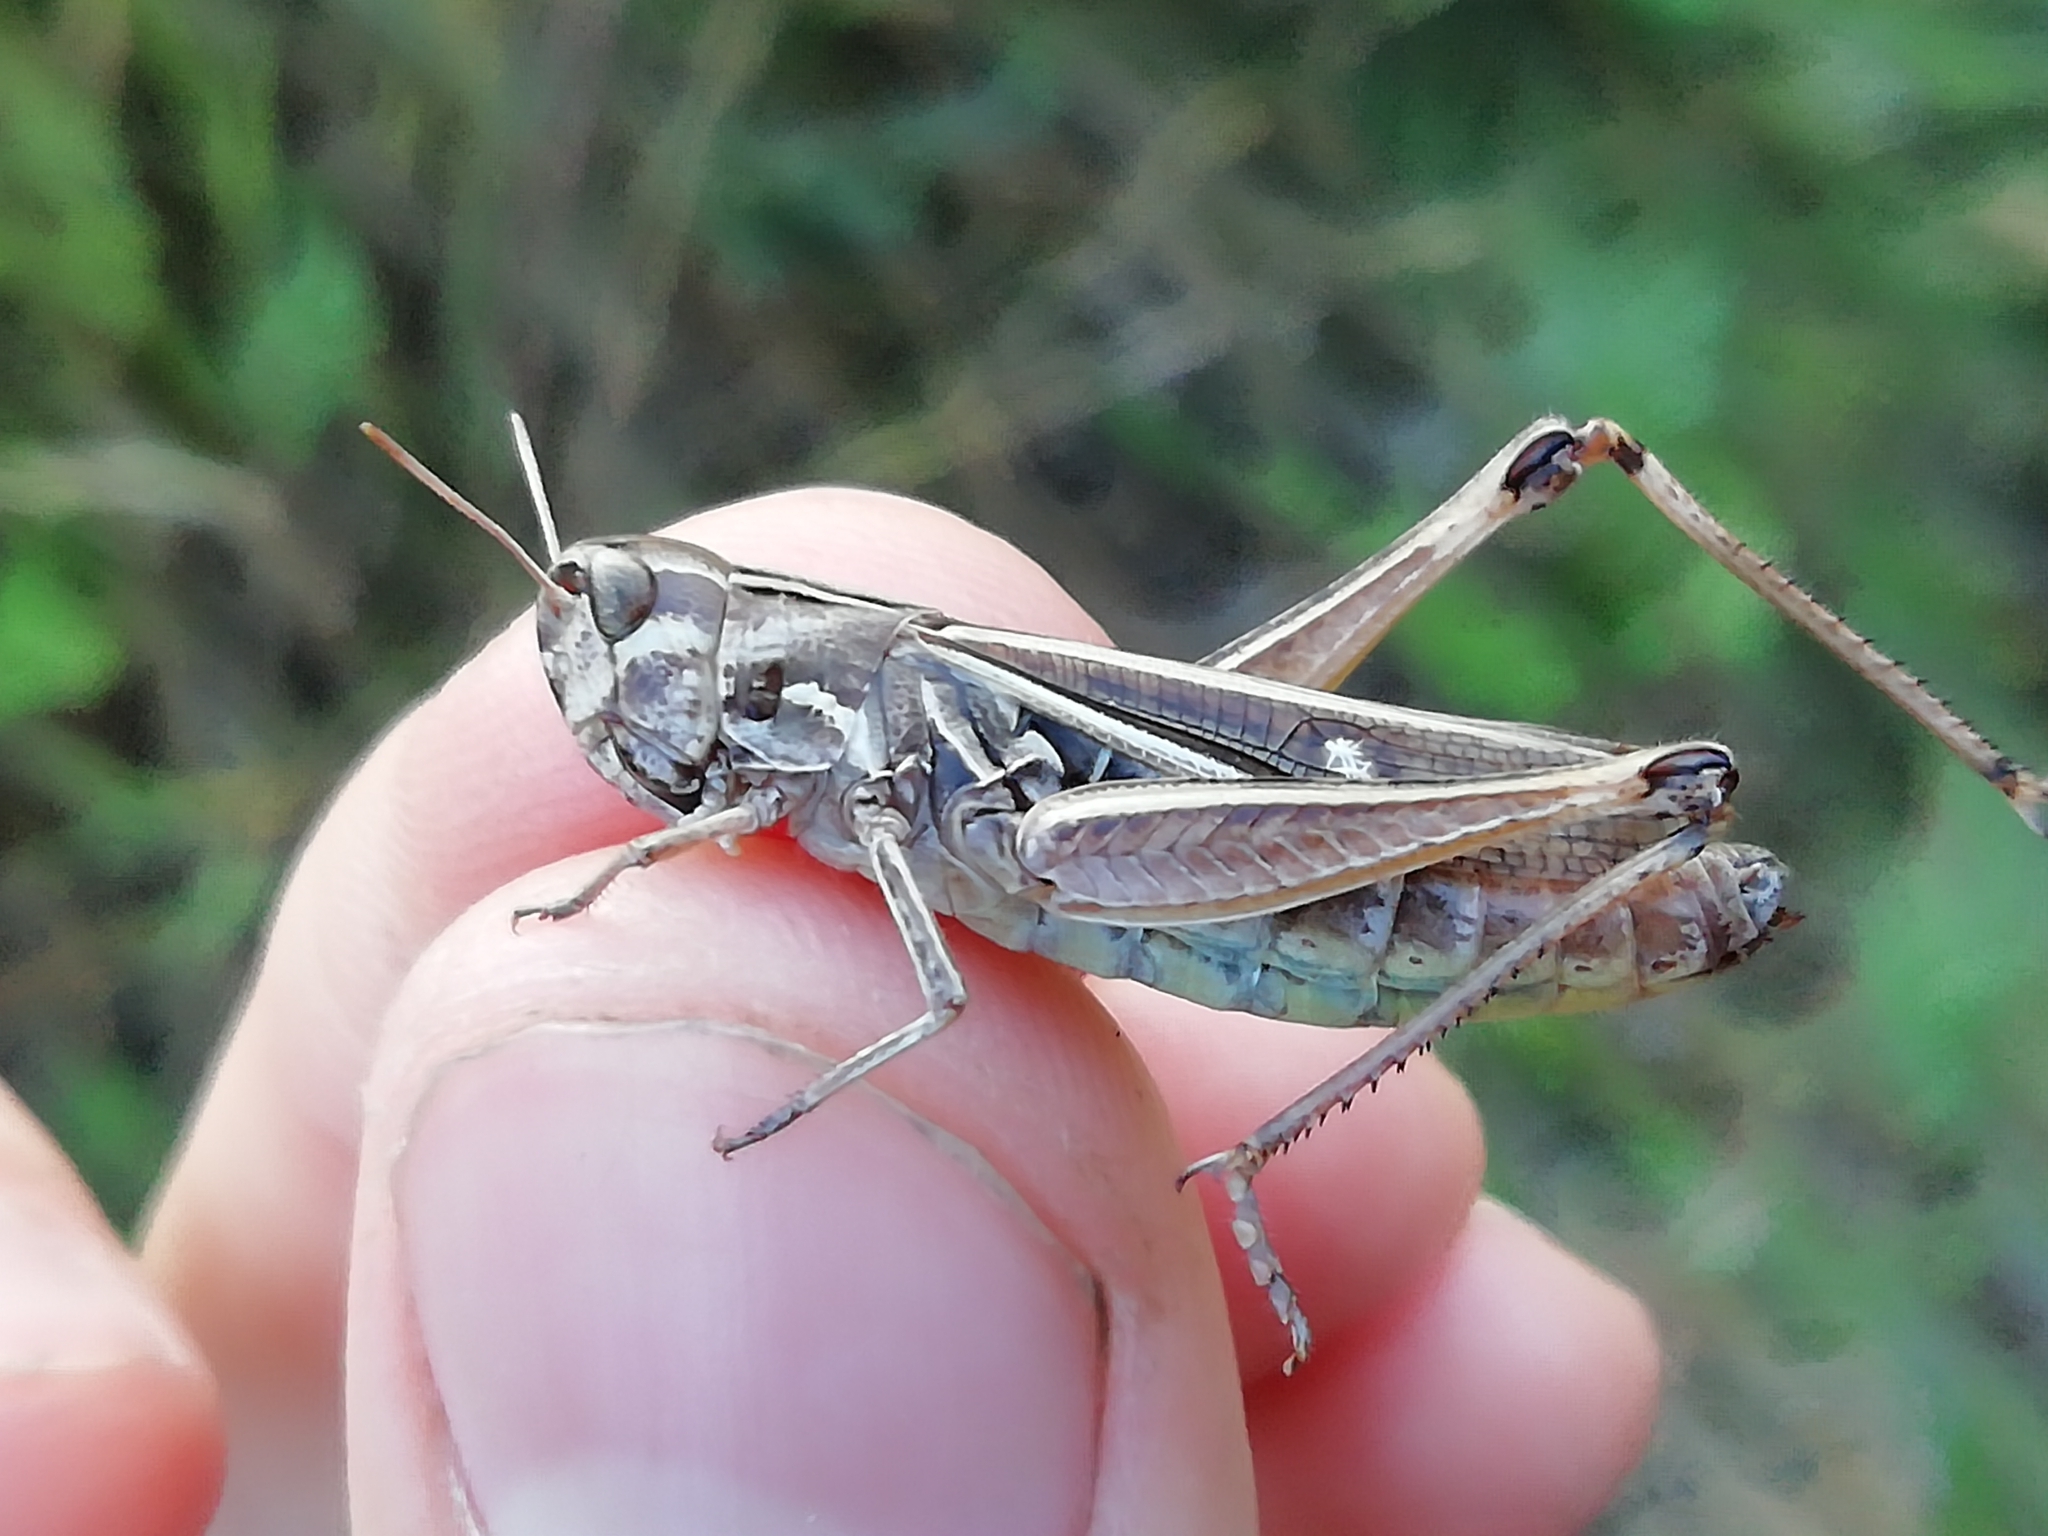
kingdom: Animalia
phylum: Arthropoda
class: Insecta
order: Orthoptera
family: Acrididae
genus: Stenobothrus
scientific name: Stenobothrus lineatus
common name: Stripe-winged grasshopper
